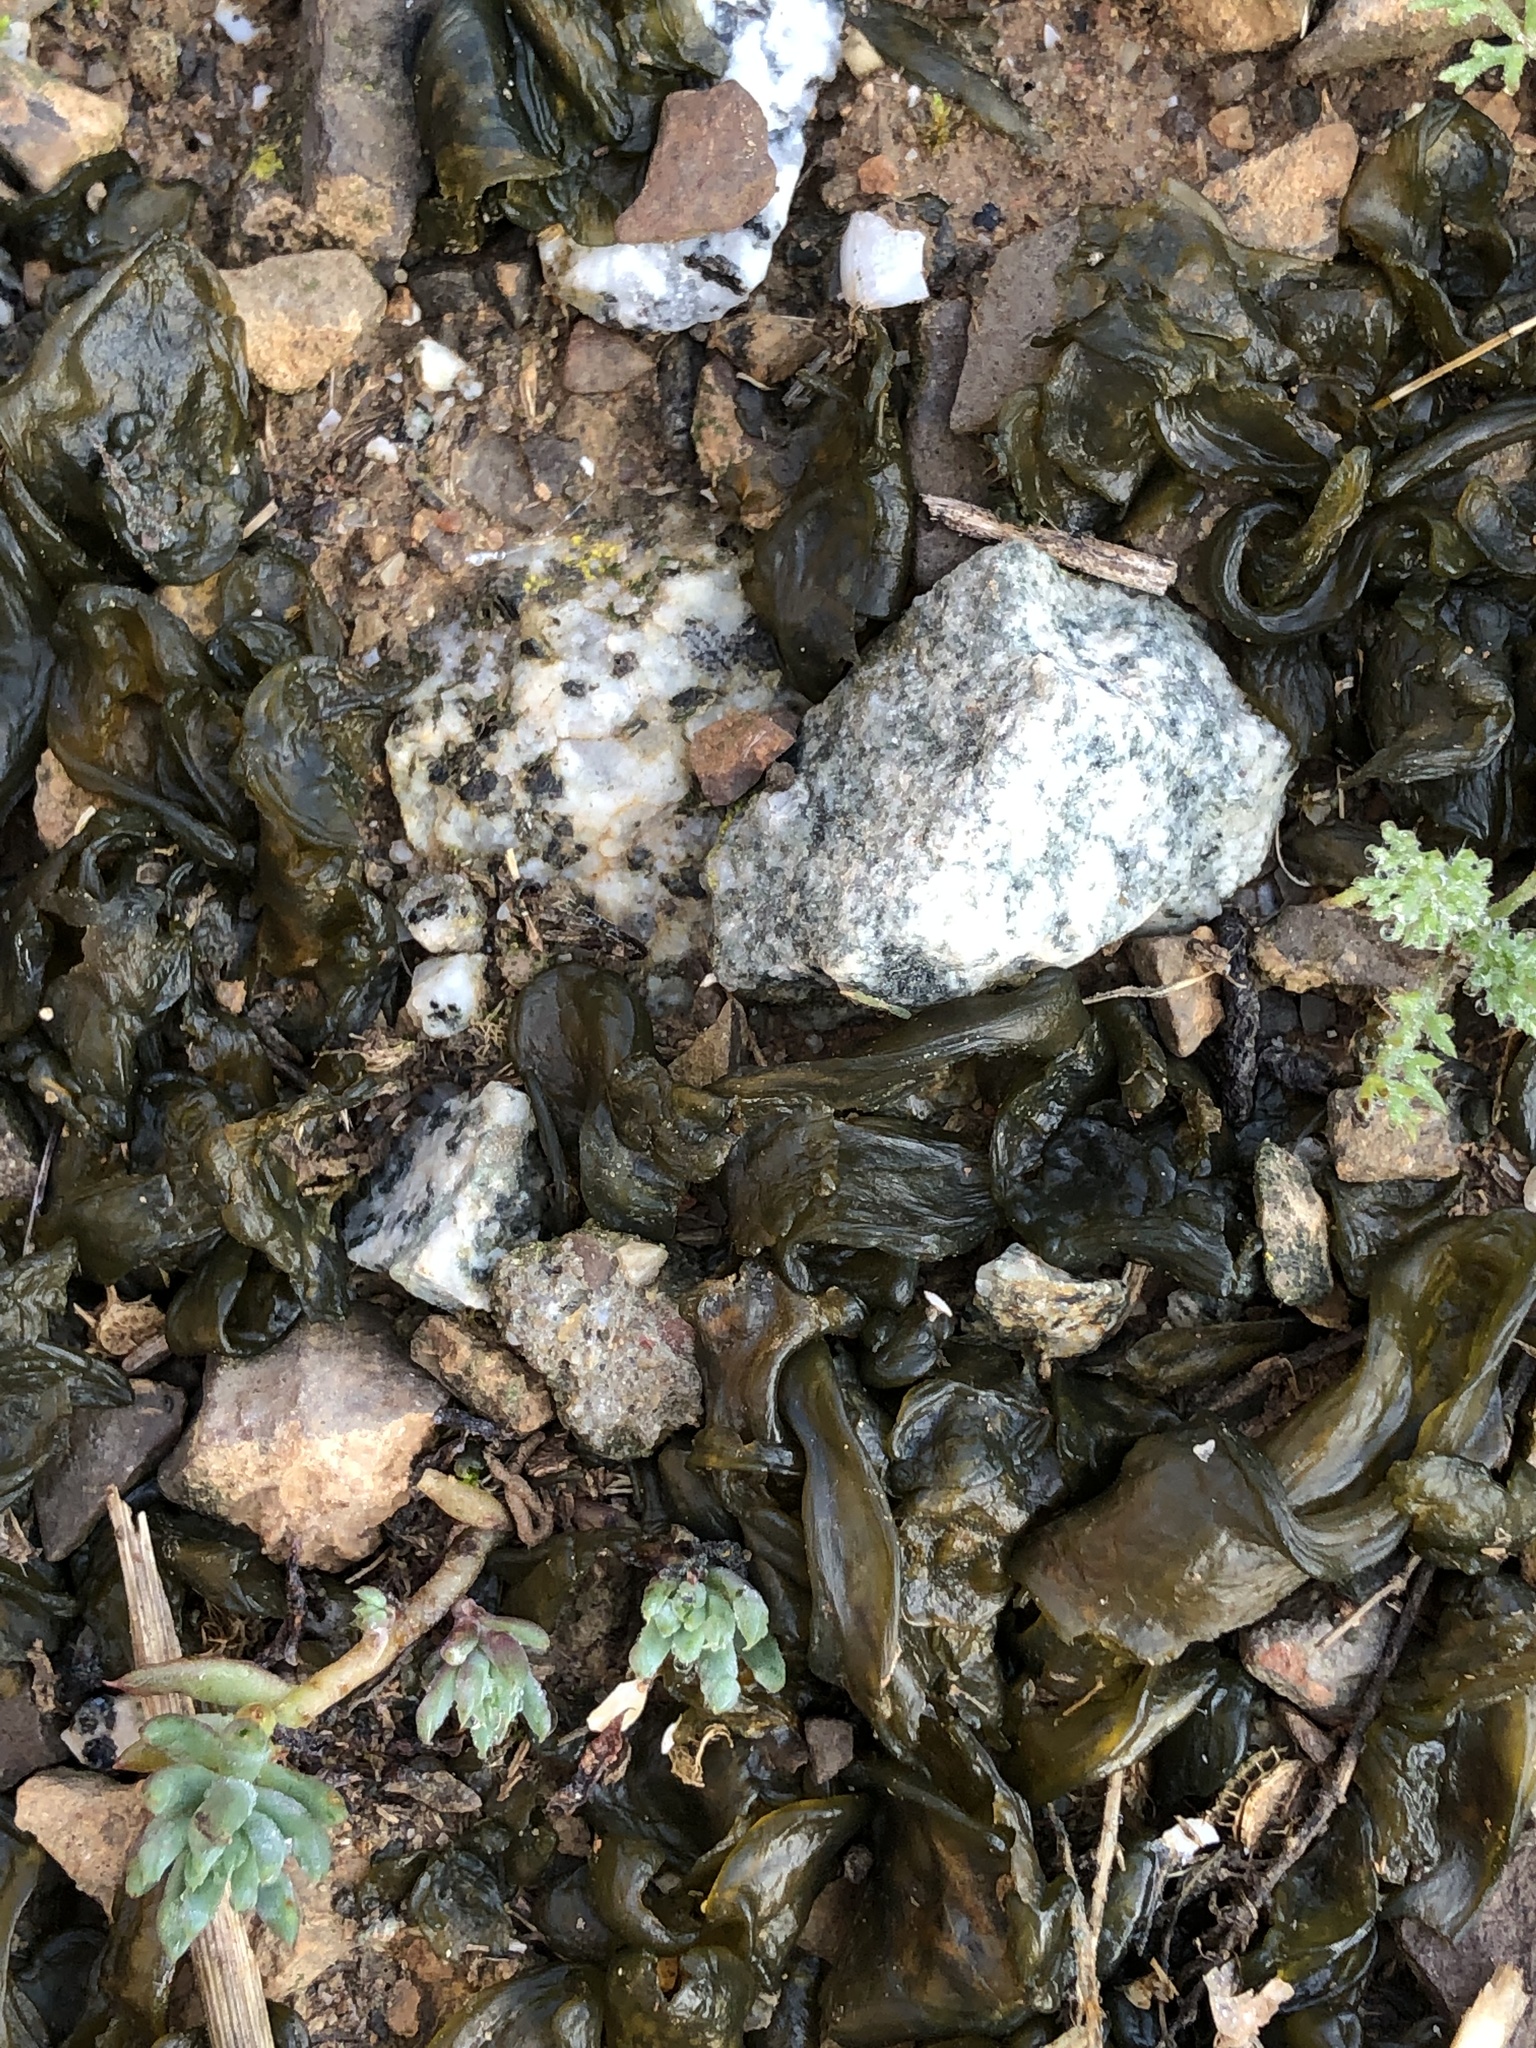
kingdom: Bacteria
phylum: Cyanobacteria
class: Cyanobacteriia
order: Cyanobacteriales
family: Nostocaceae
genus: Nostoc
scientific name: Nostoc commune
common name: Star jelly
